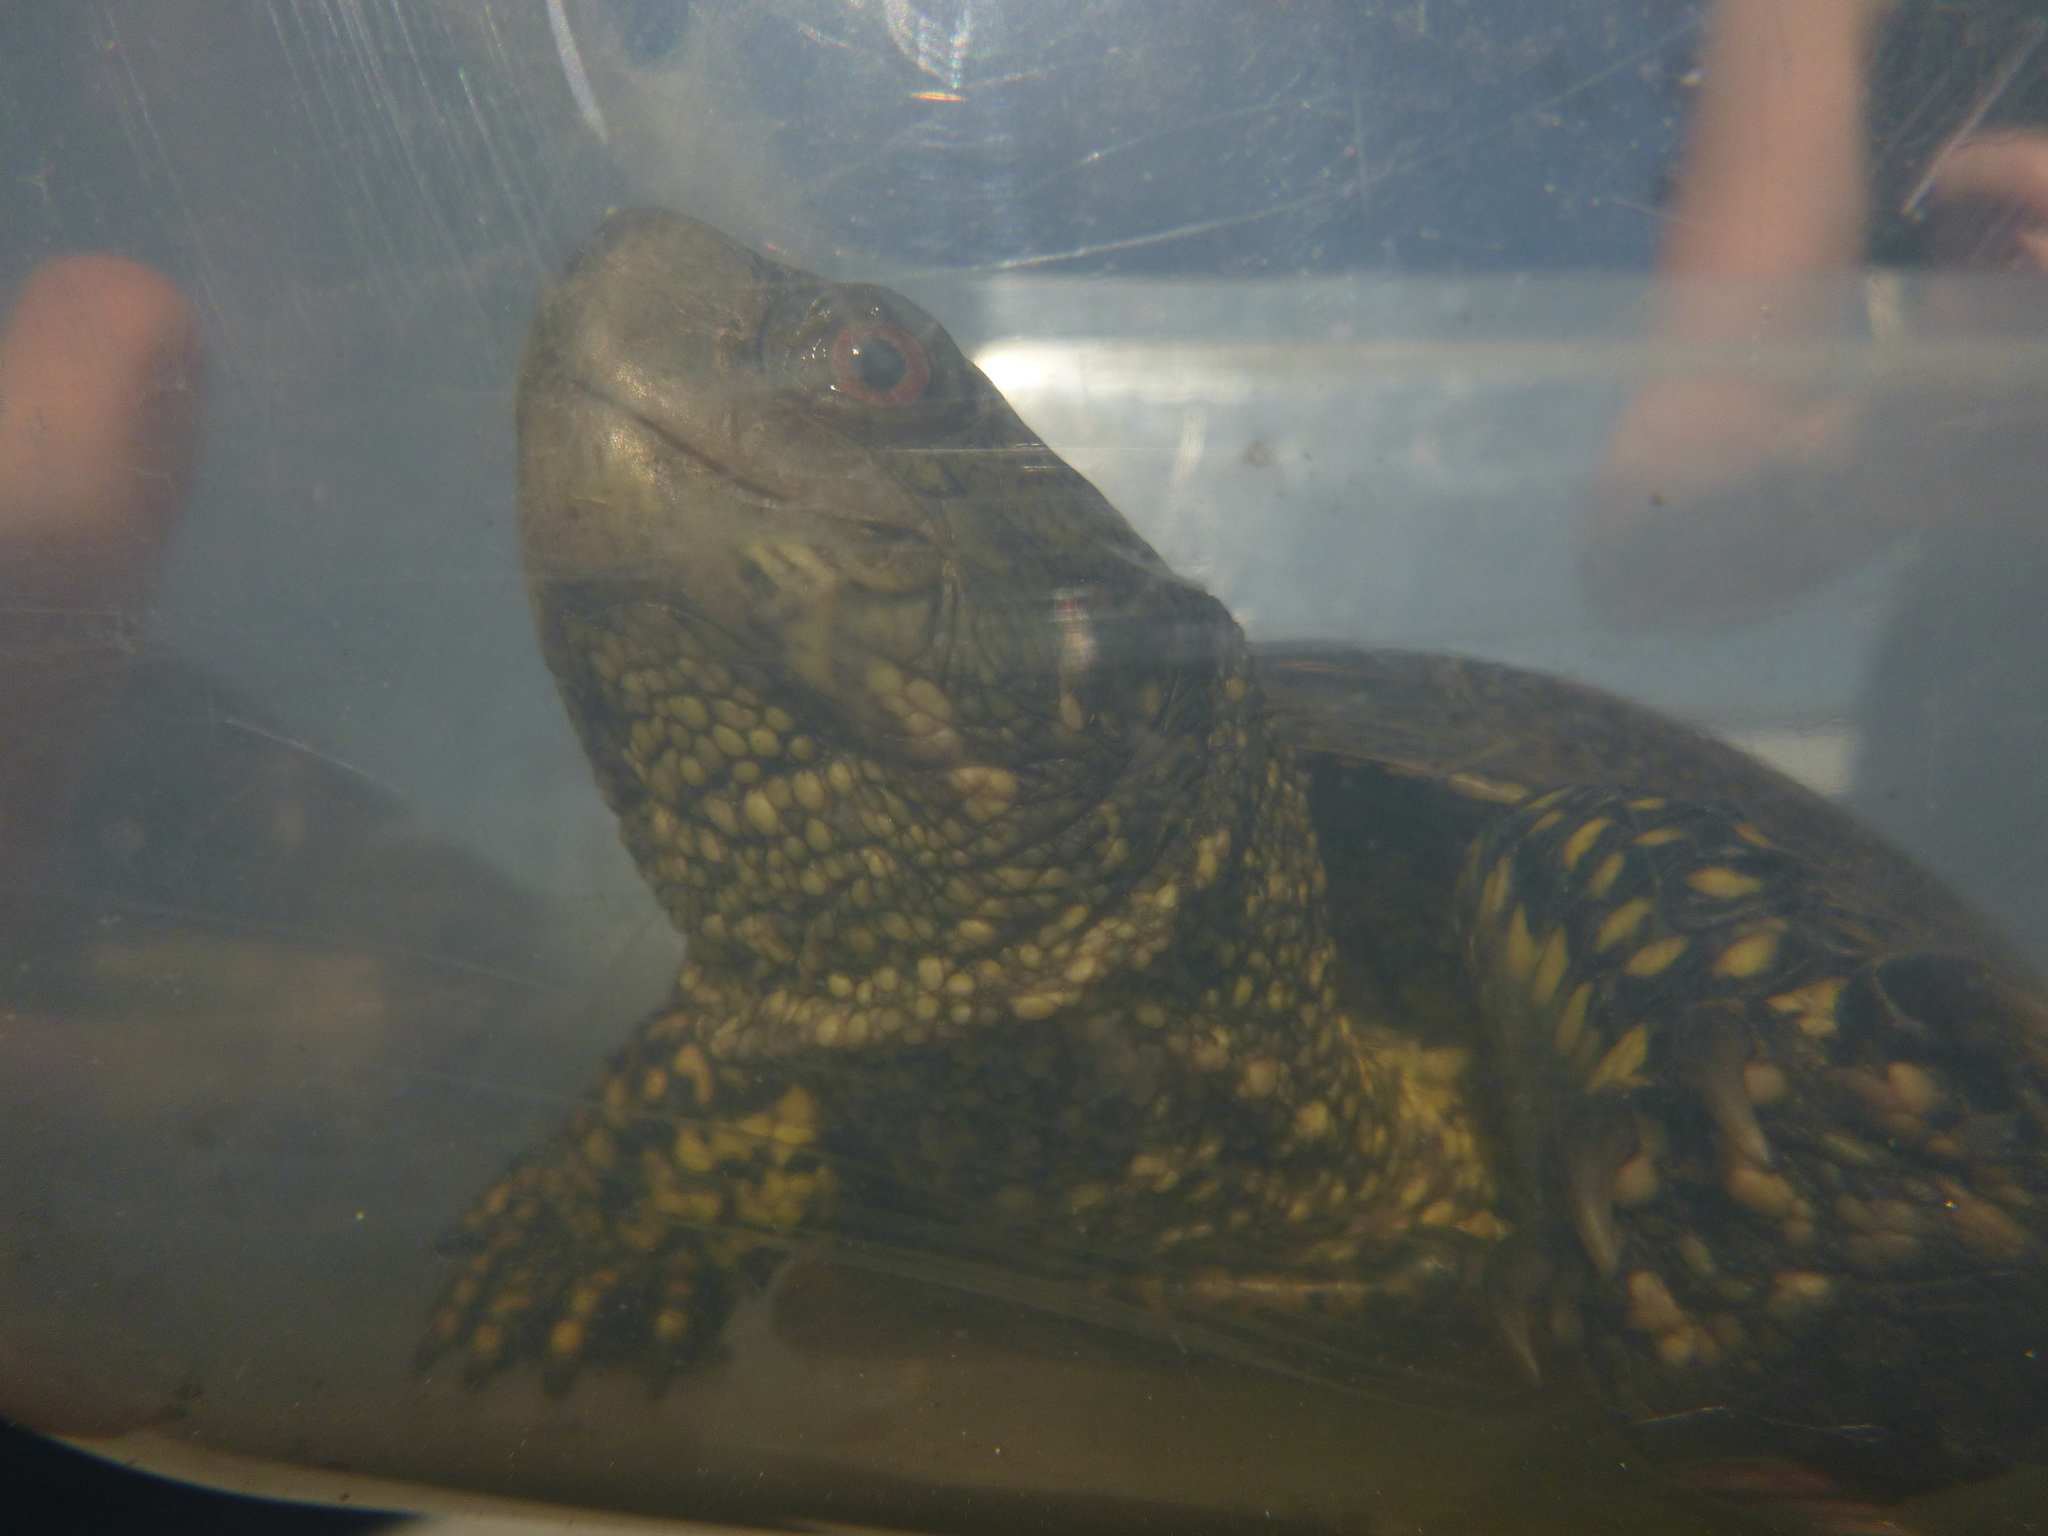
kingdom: Animalia
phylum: Chordata
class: Testudines
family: Emydidae
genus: Emys
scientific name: Emys orbicularis
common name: European pond turtle
